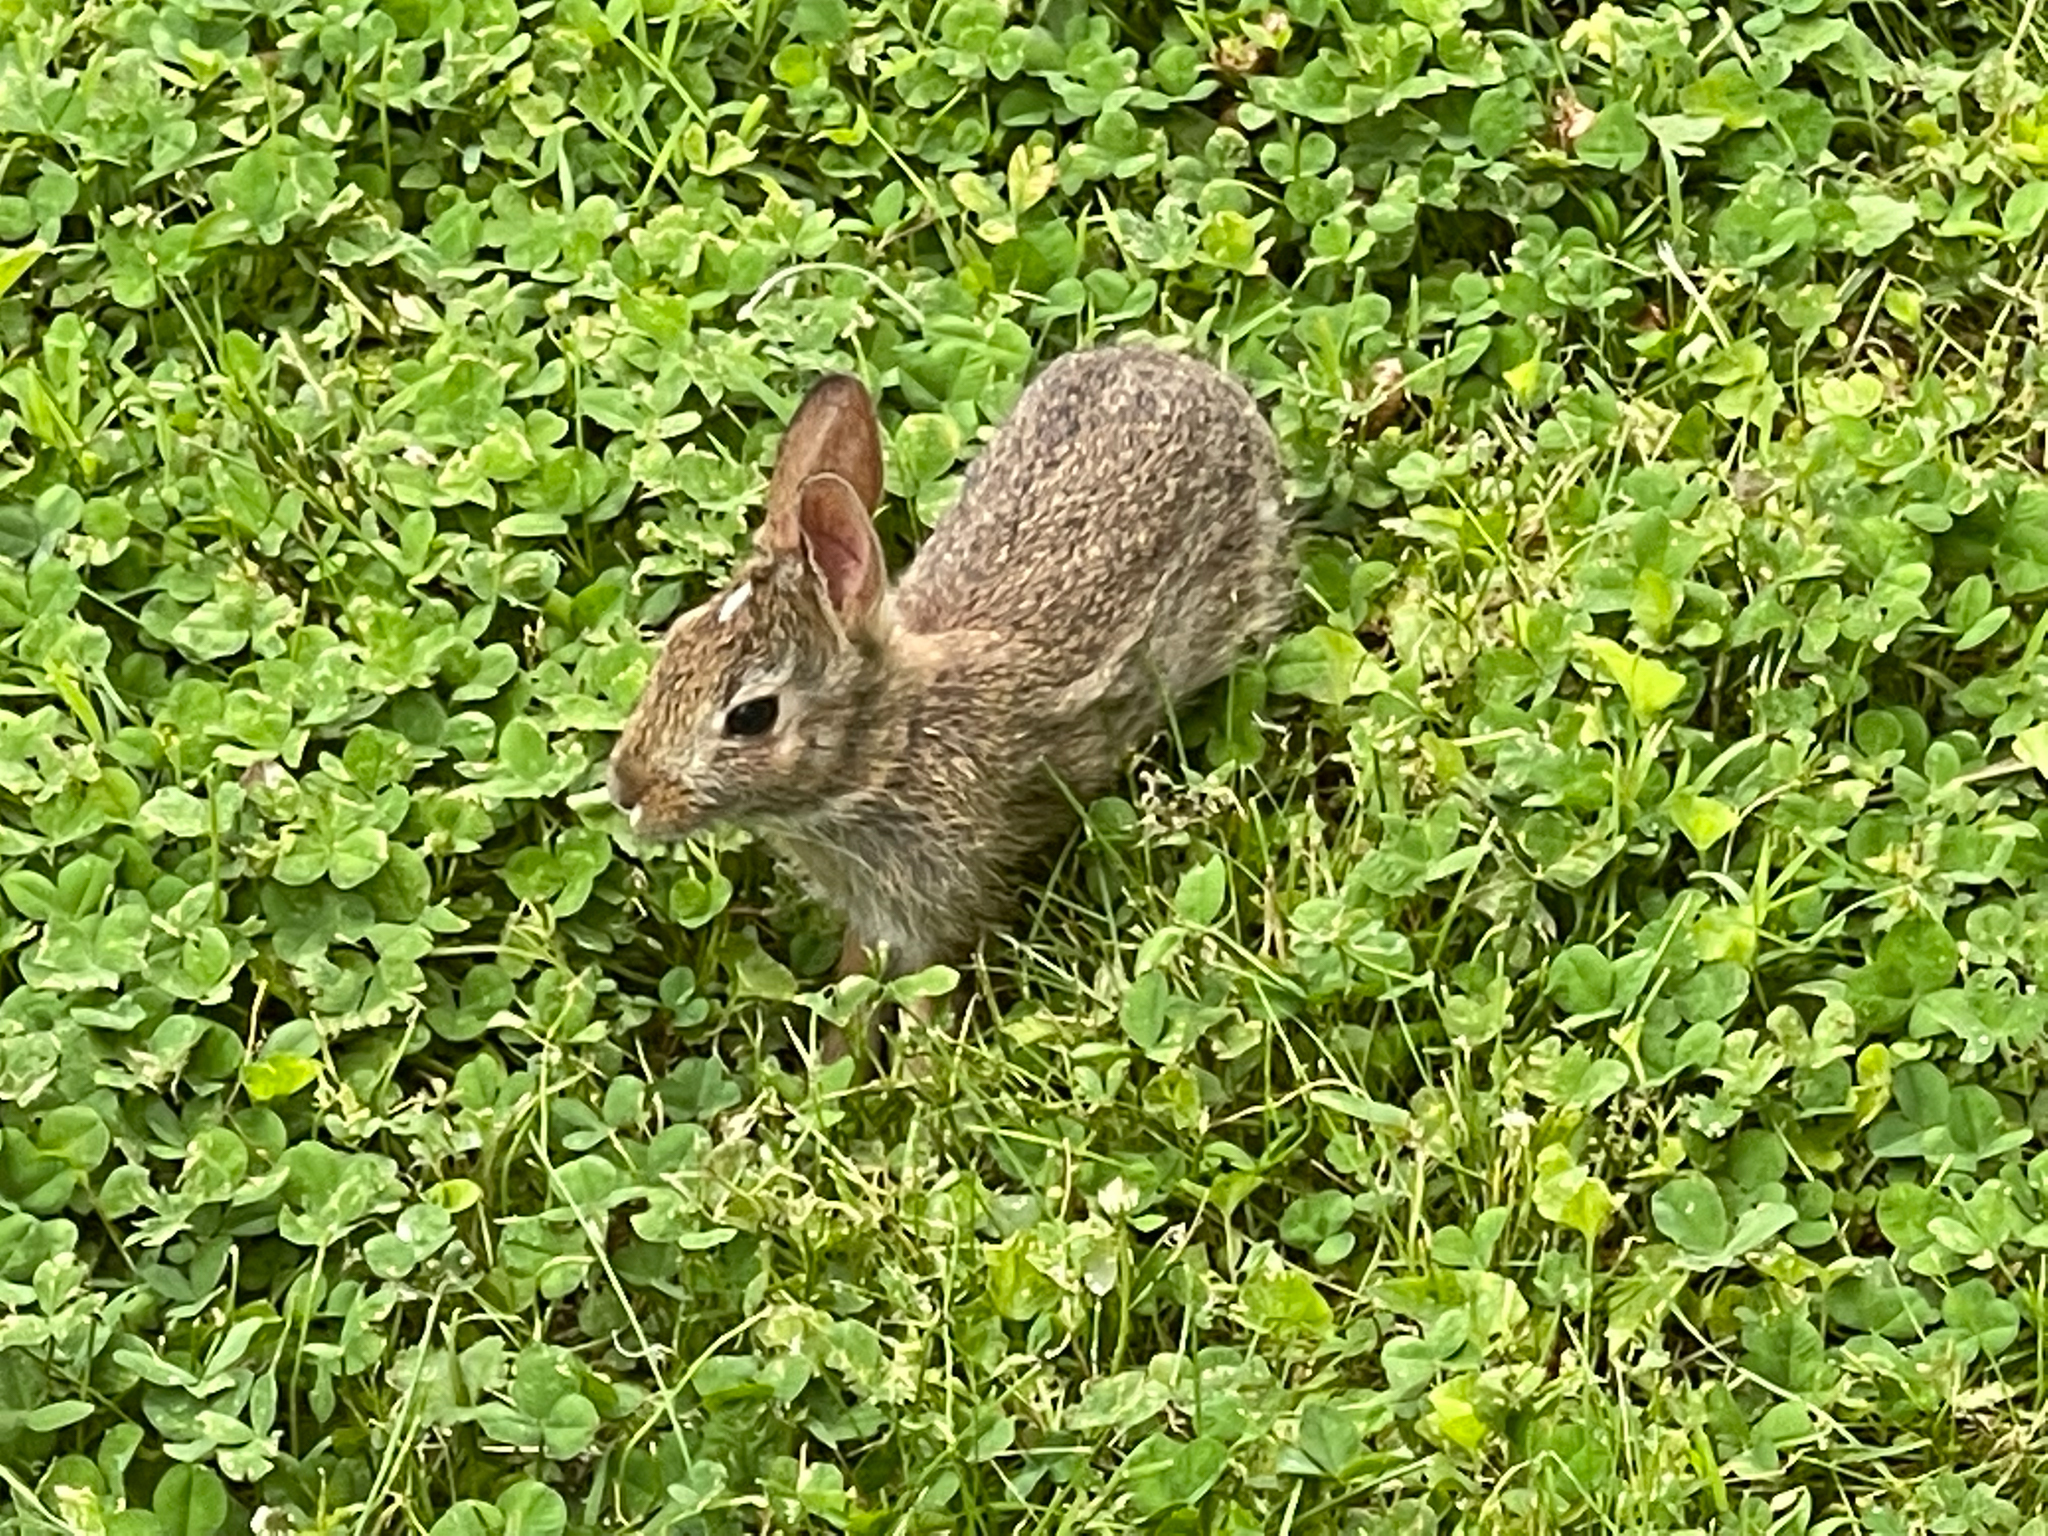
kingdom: Animalia
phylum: Chordata
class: Mammalia
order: Lagomorpha
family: Leporidae
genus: Sylvilagus
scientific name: Sylvilagus floridanus
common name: Eastern cottontail
